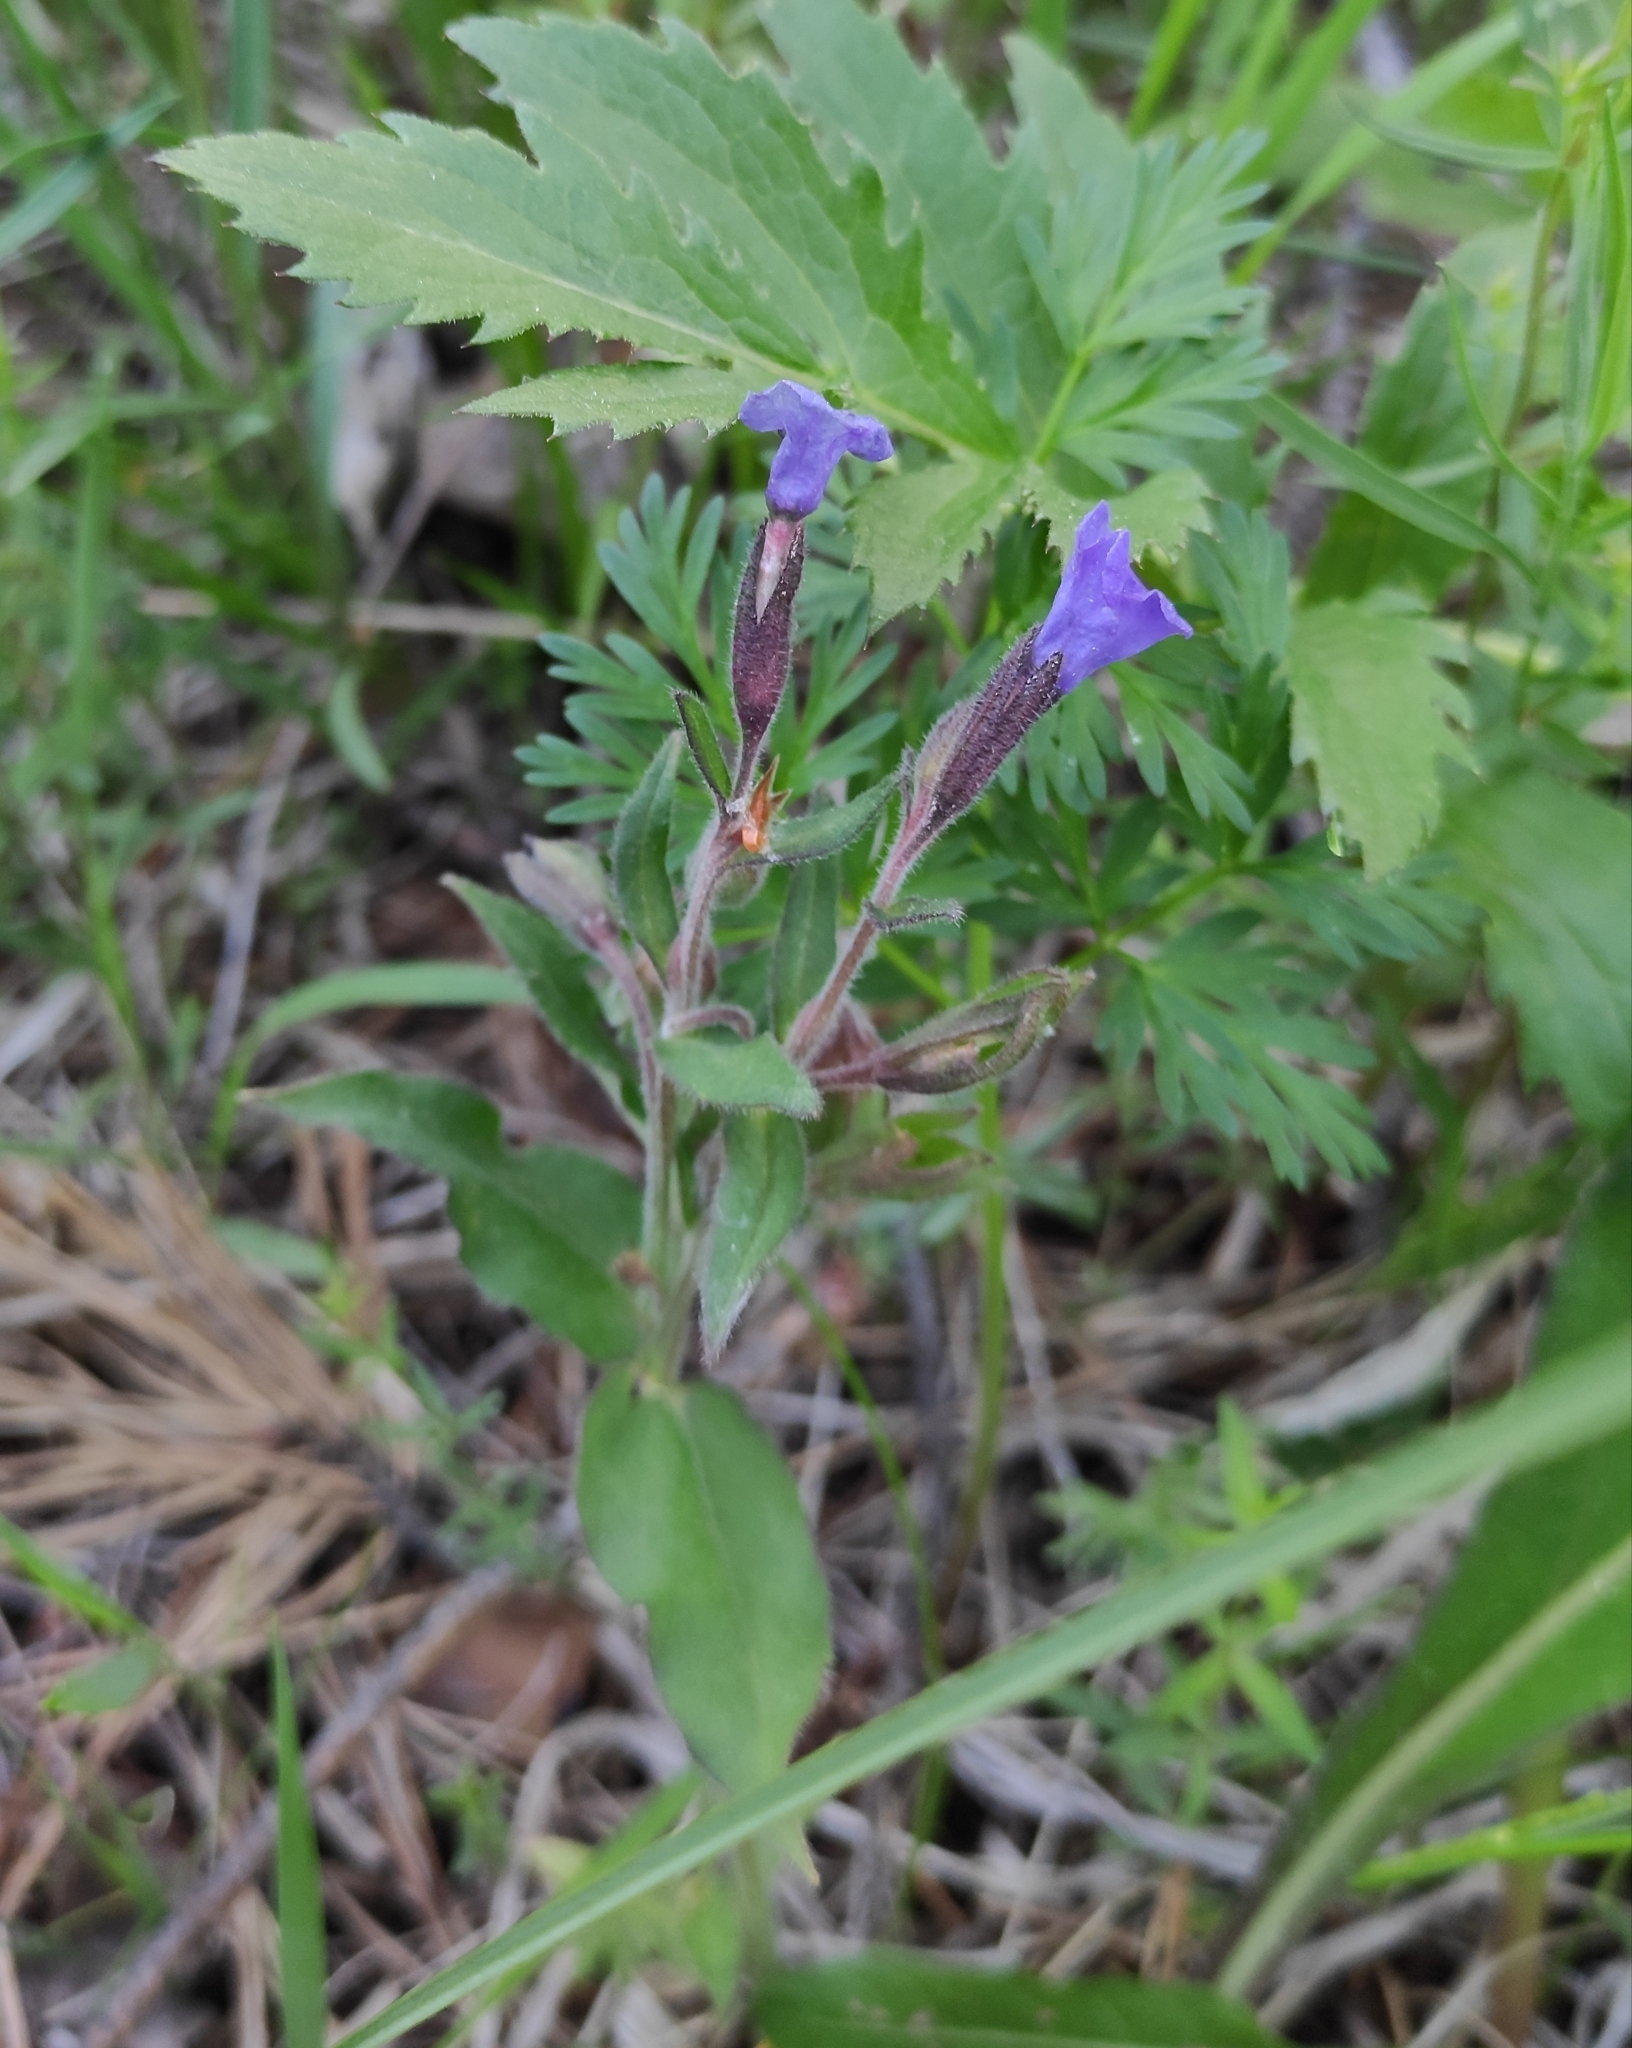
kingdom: Plantae
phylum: Tracheophyta
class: Magnoliopsida
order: Boraginales
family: Boraginaceae
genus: Pulmonaria
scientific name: Pulmonaria mollis
